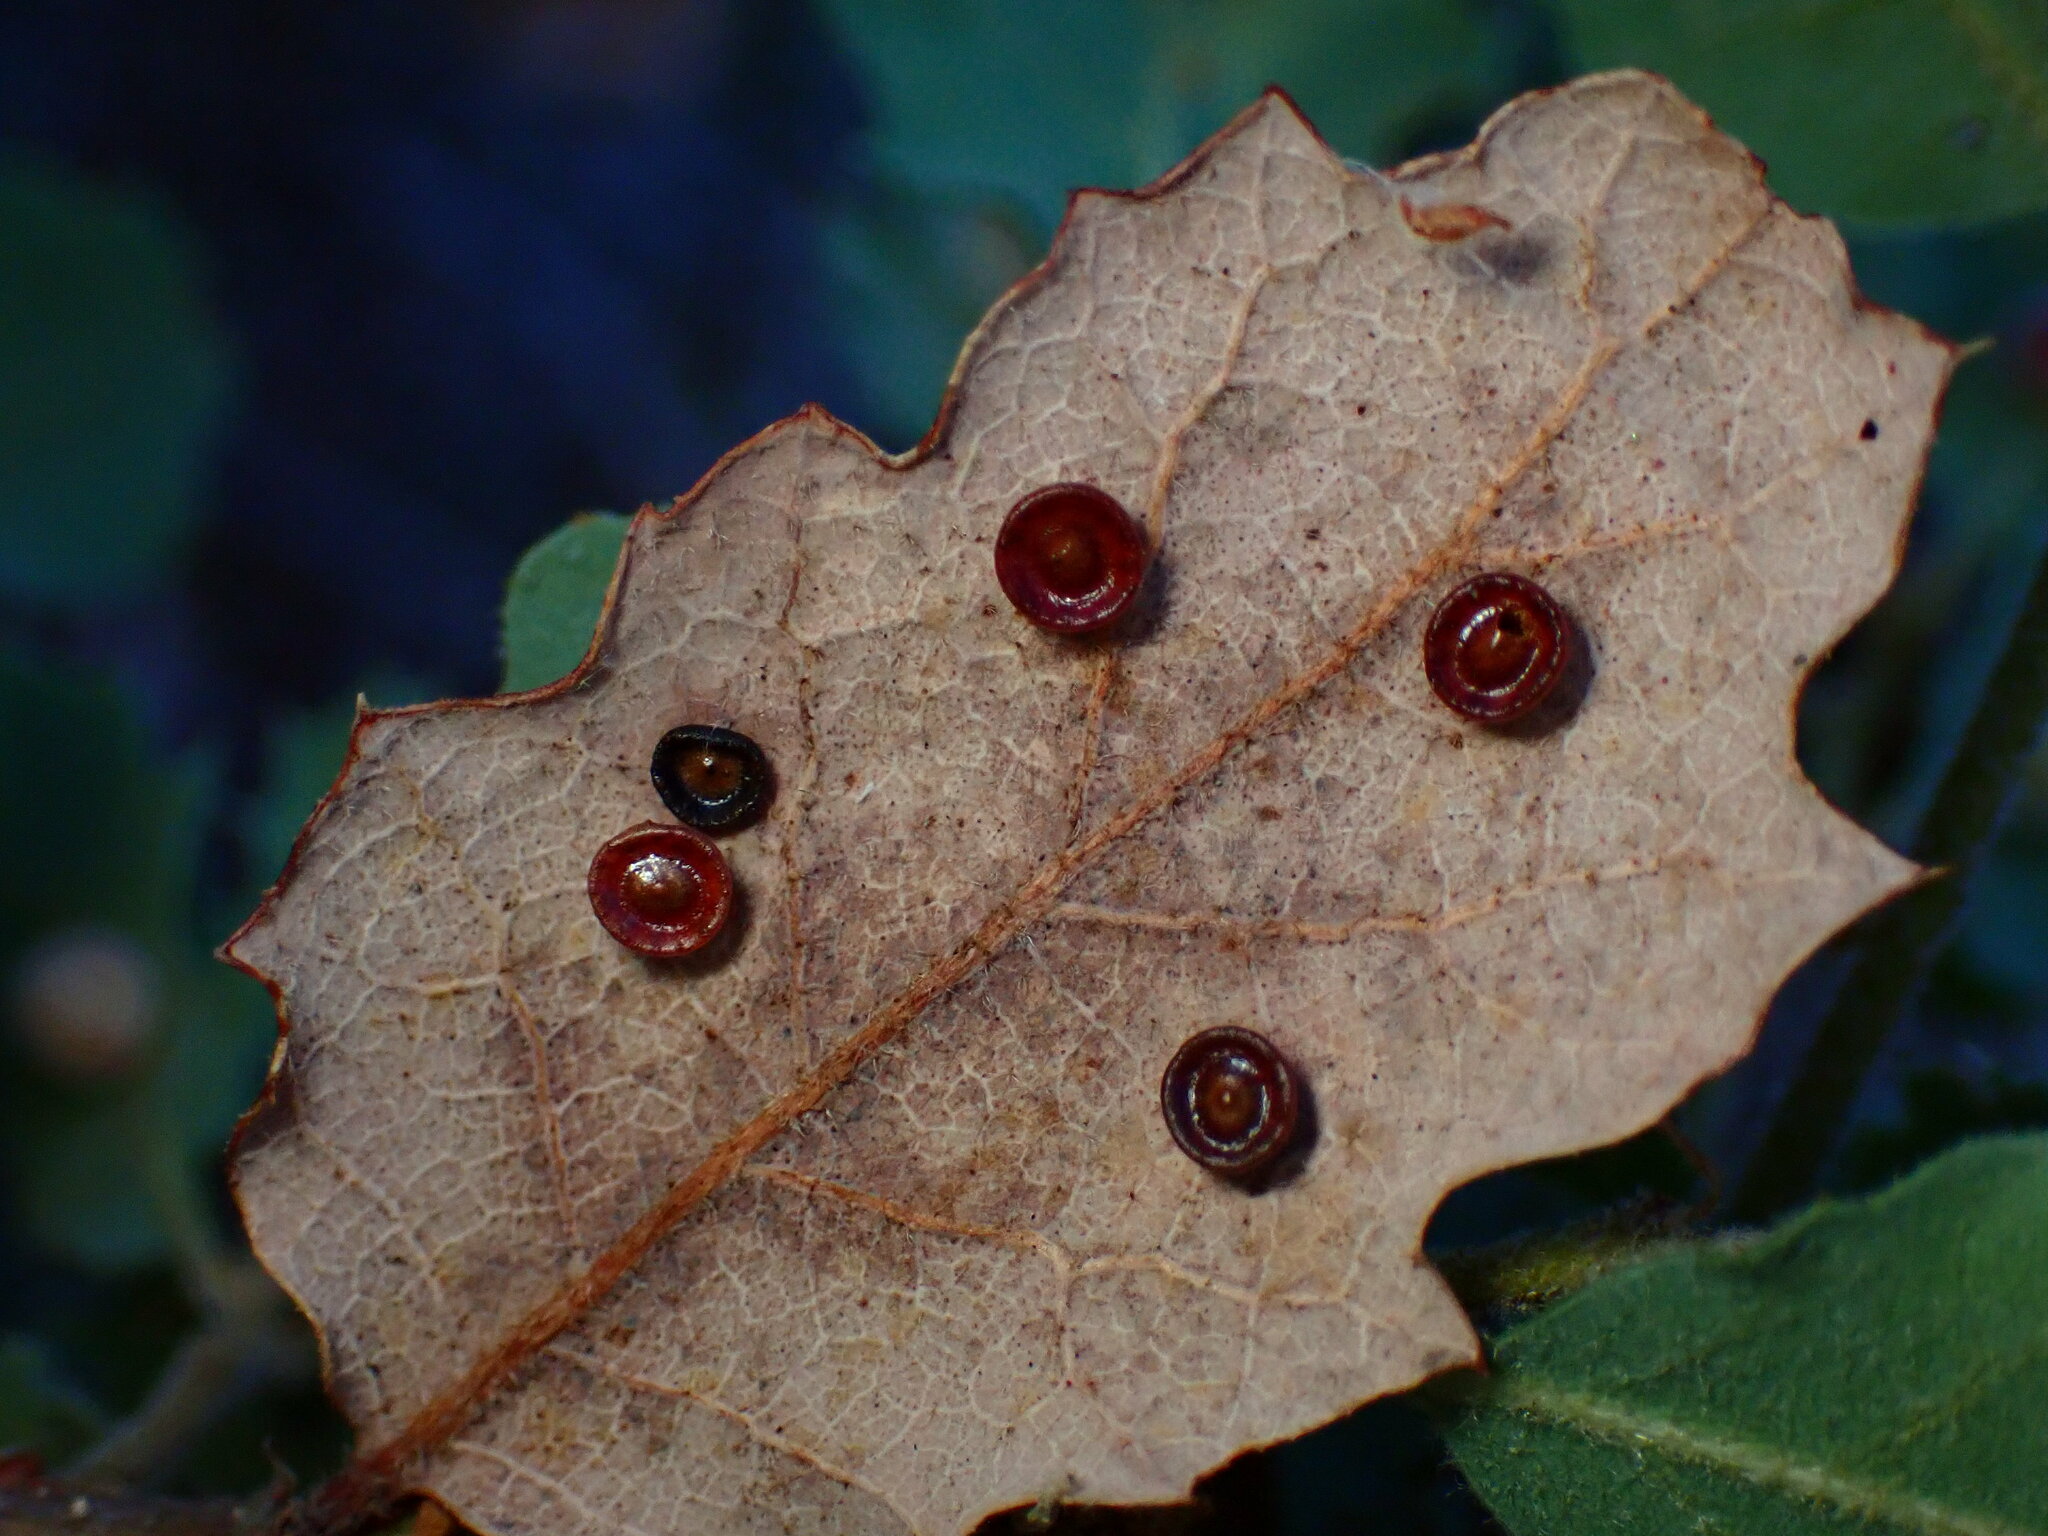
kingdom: Animalia
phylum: Arthropoda
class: Insecta
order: Hymenoptera
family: Cynipidae
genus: Andricus
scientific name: Andricus
